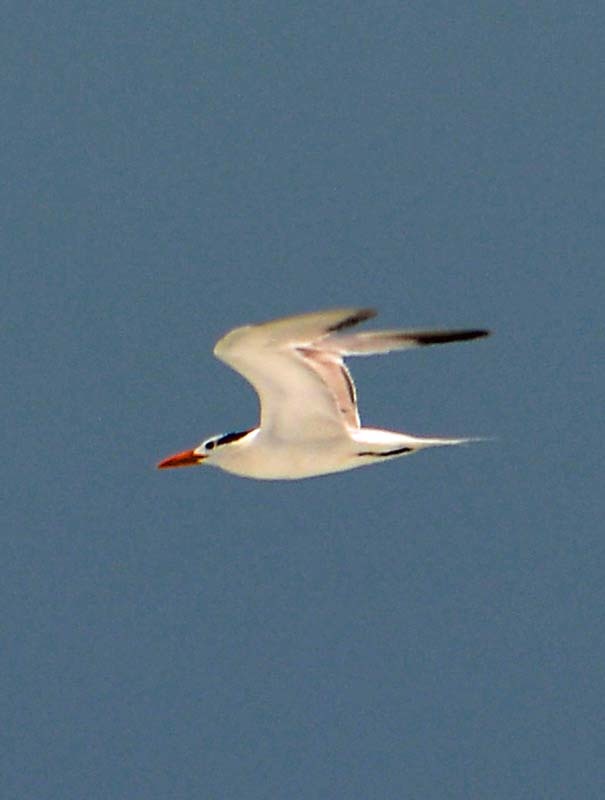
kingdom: Animalia
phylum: Chordata
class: Aves
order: Charadriiformes
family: Laridae
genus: Thalasseus
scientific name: Thalasseus maximus
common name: Royal tern
